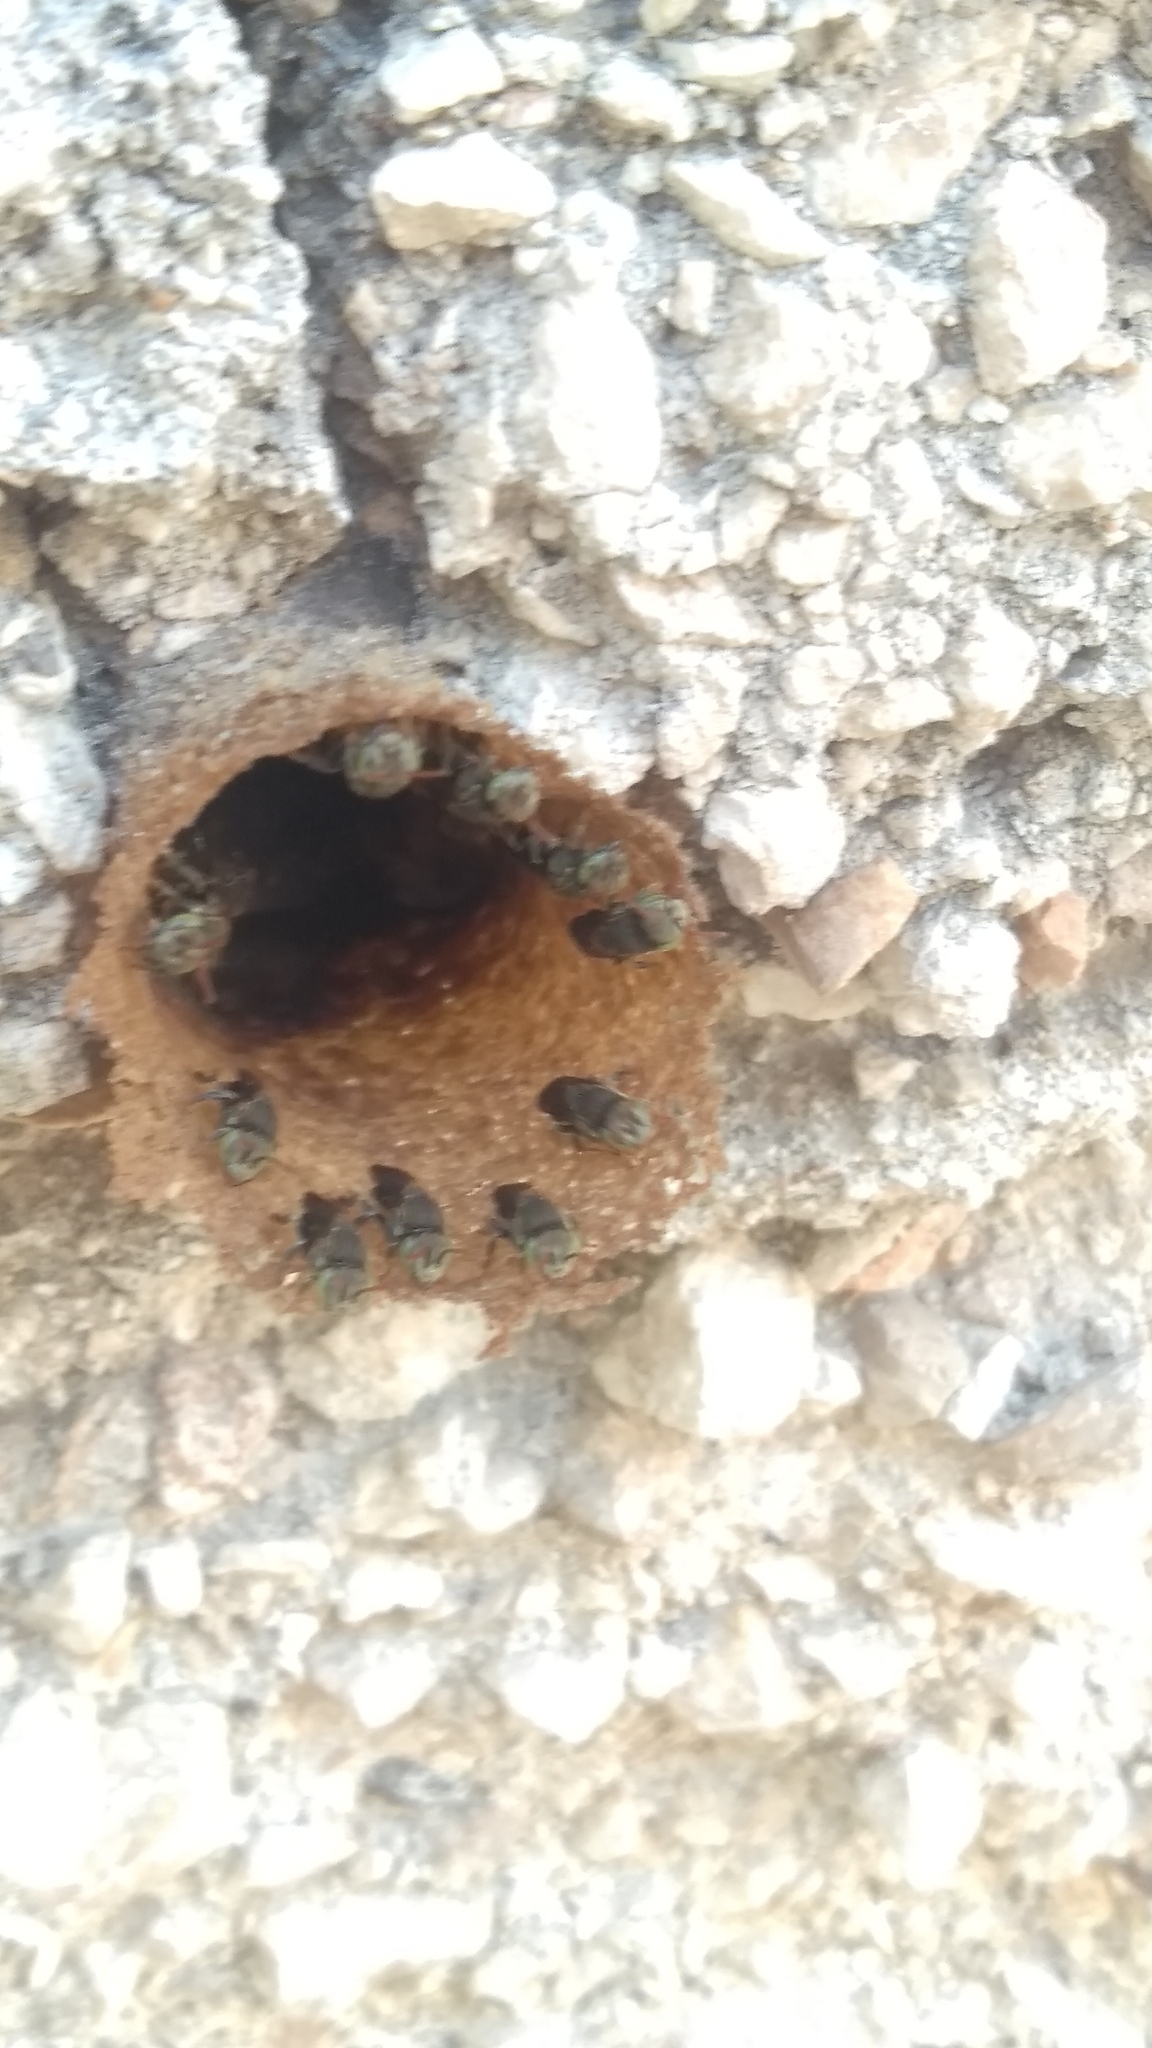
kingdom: Animalia
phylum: Arthropoda
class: Insecta
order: Hymenoptera
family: Apidae
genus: Nannotrigona
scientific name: Nannotrigona perilampoides
